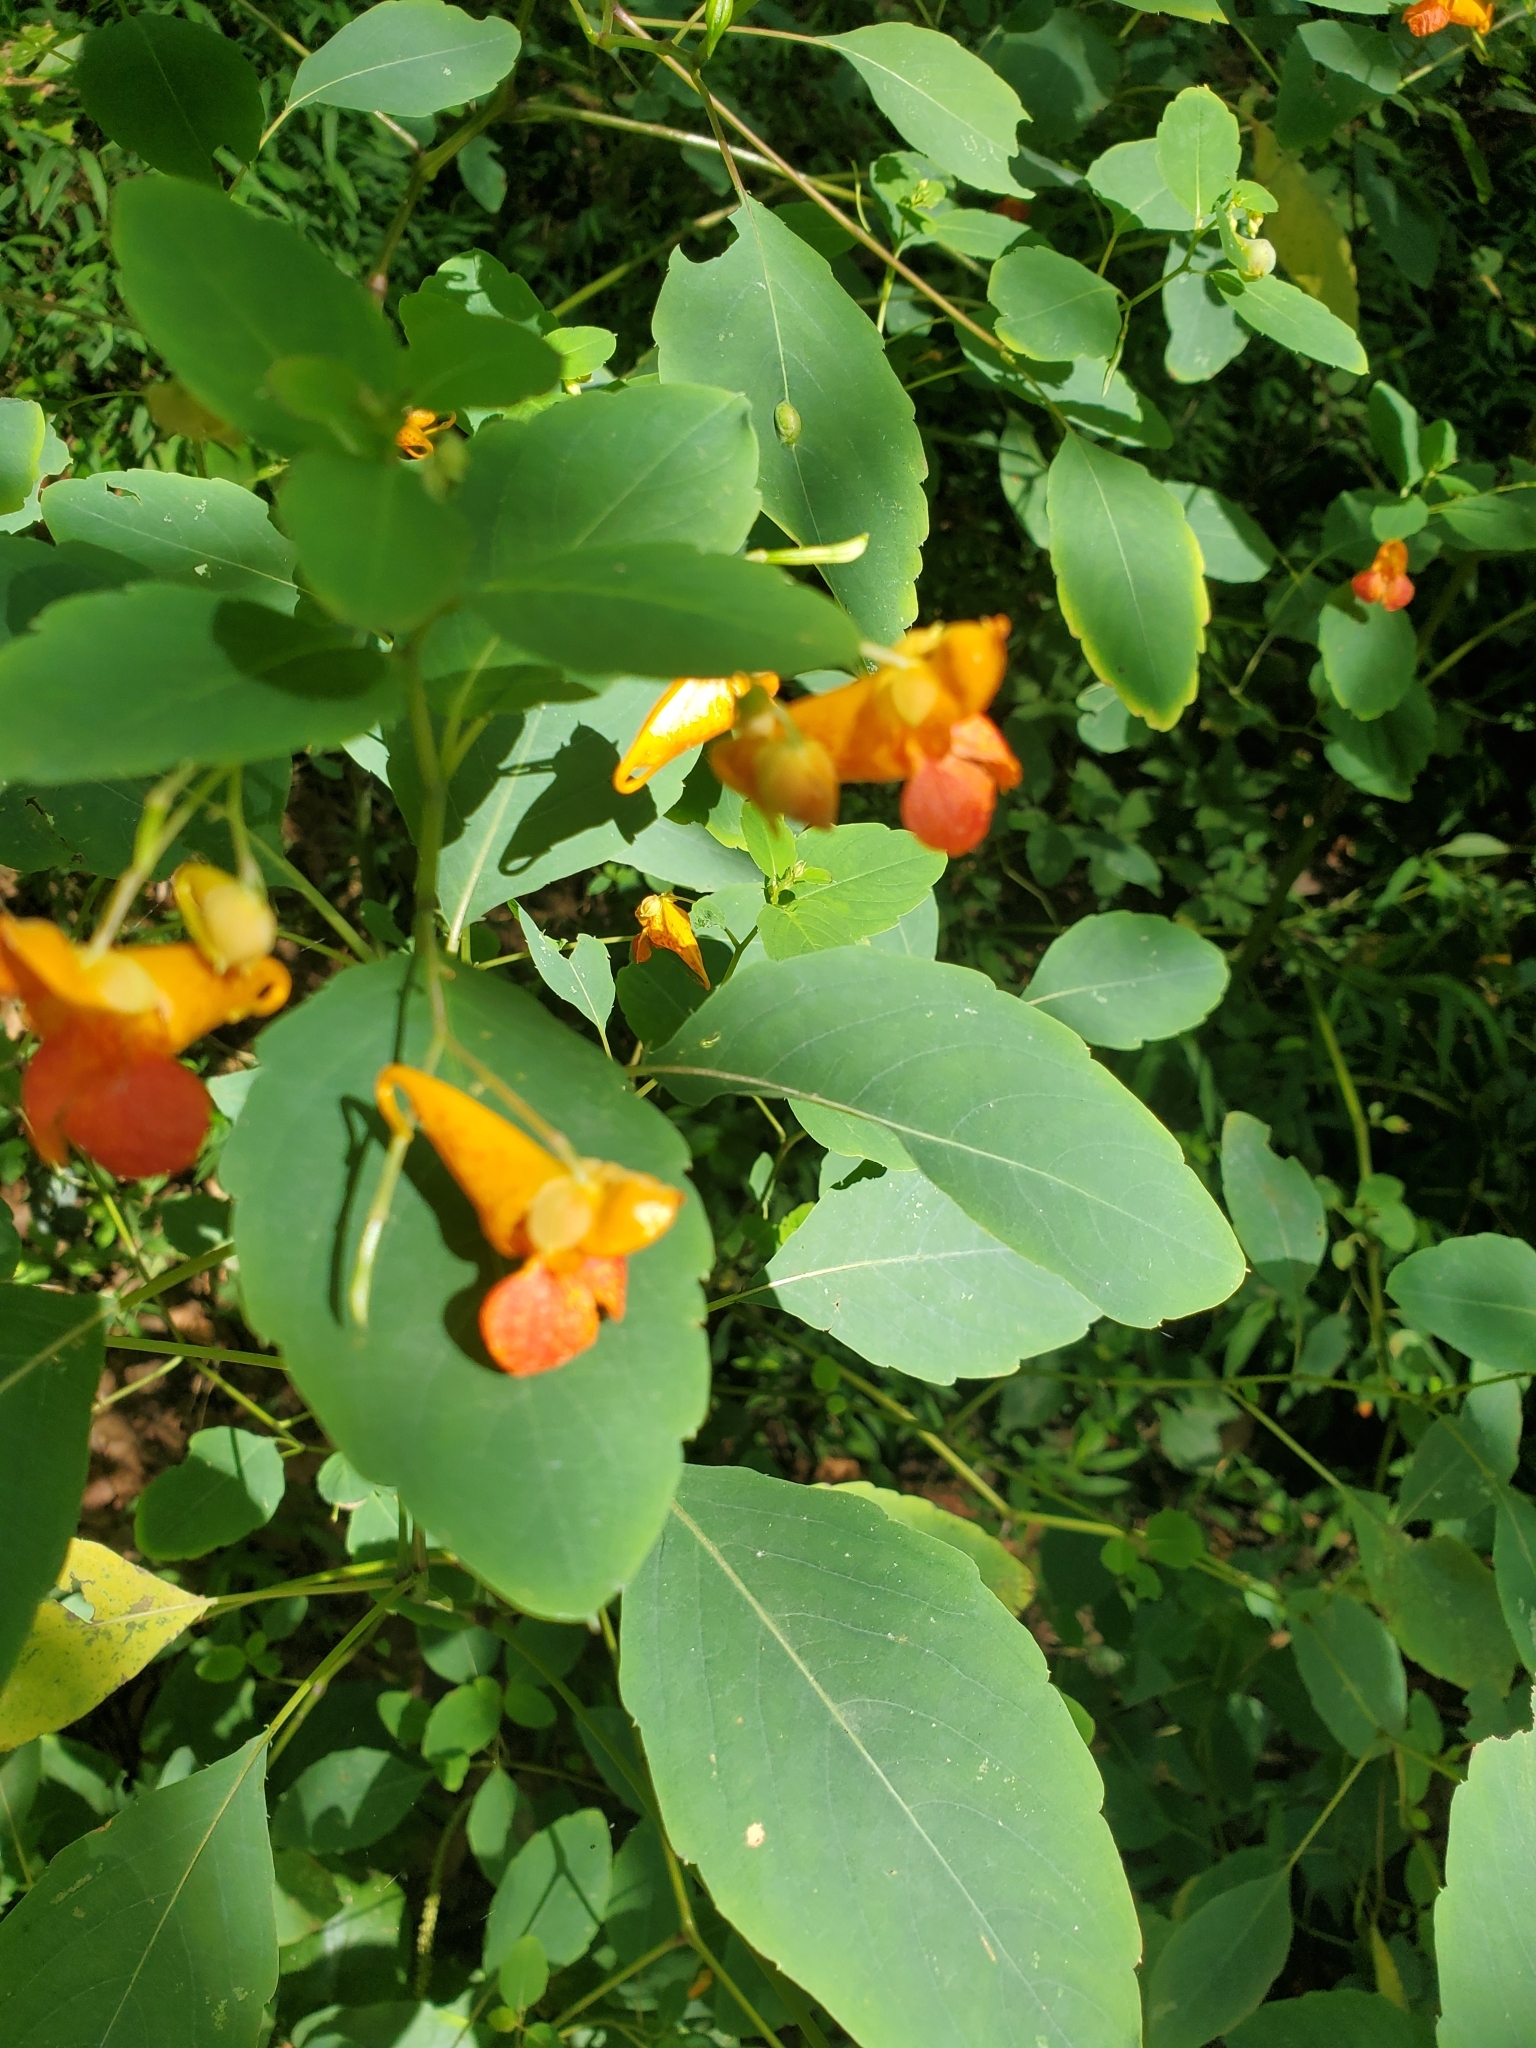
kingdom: Plantae
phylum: Tracheophyta
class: Magnoliopsida
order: Ericales
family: Balsaminaceae
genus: Impatiens
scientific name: Impatiens capensis
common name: Orange balsam
